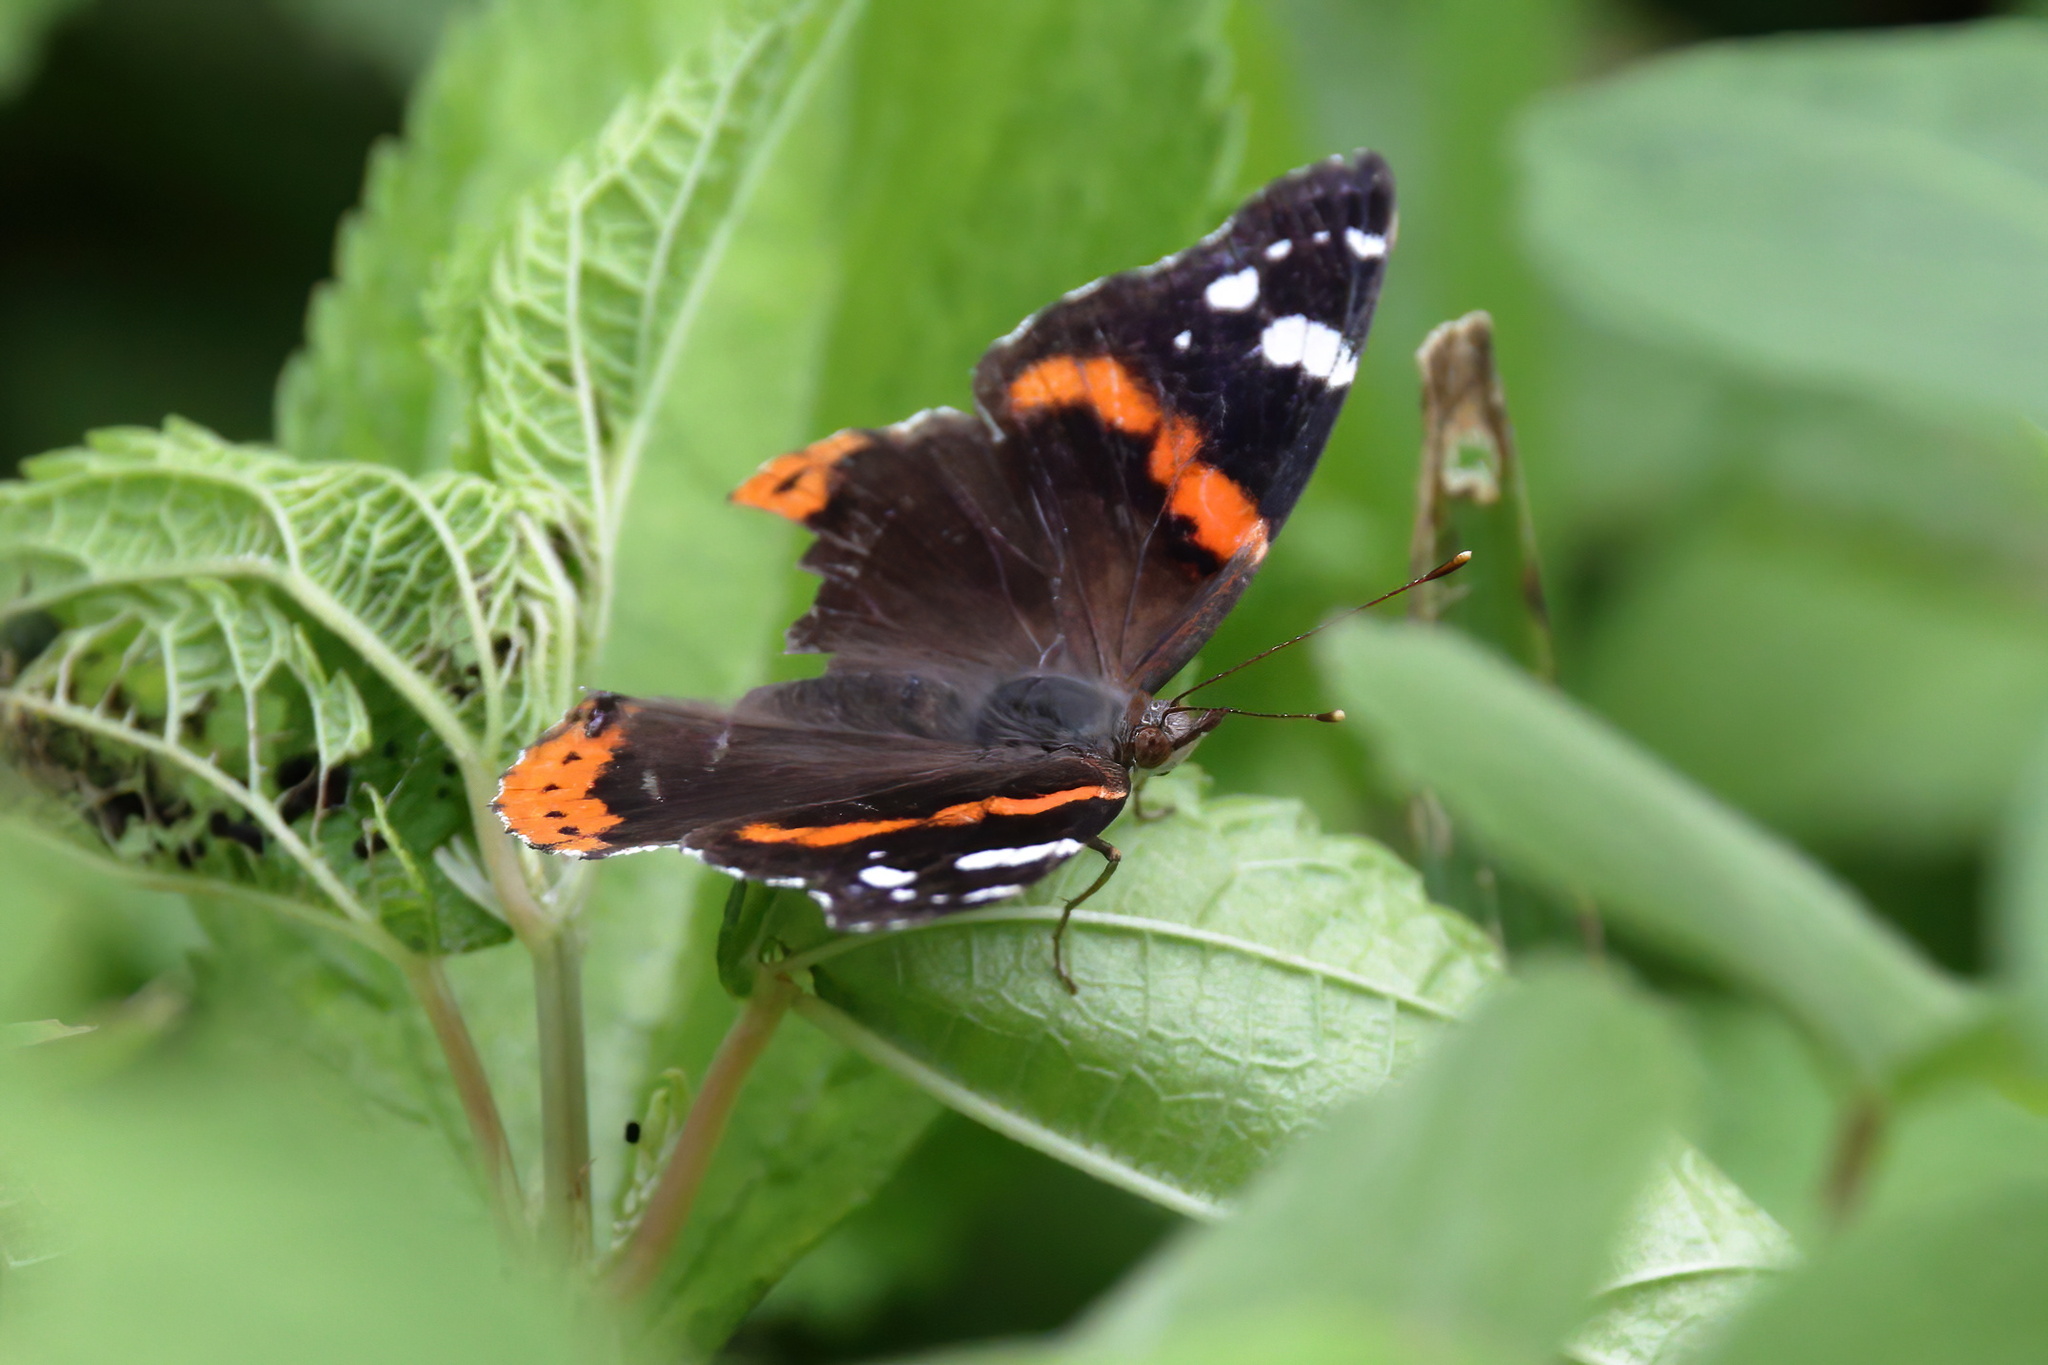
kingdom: Animalia
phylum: Arthropoda
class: Insecta
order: Lepidoptera
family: Nymphalidae
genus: Vanessa
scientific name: Vanessa atalanta
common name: Red admiral
